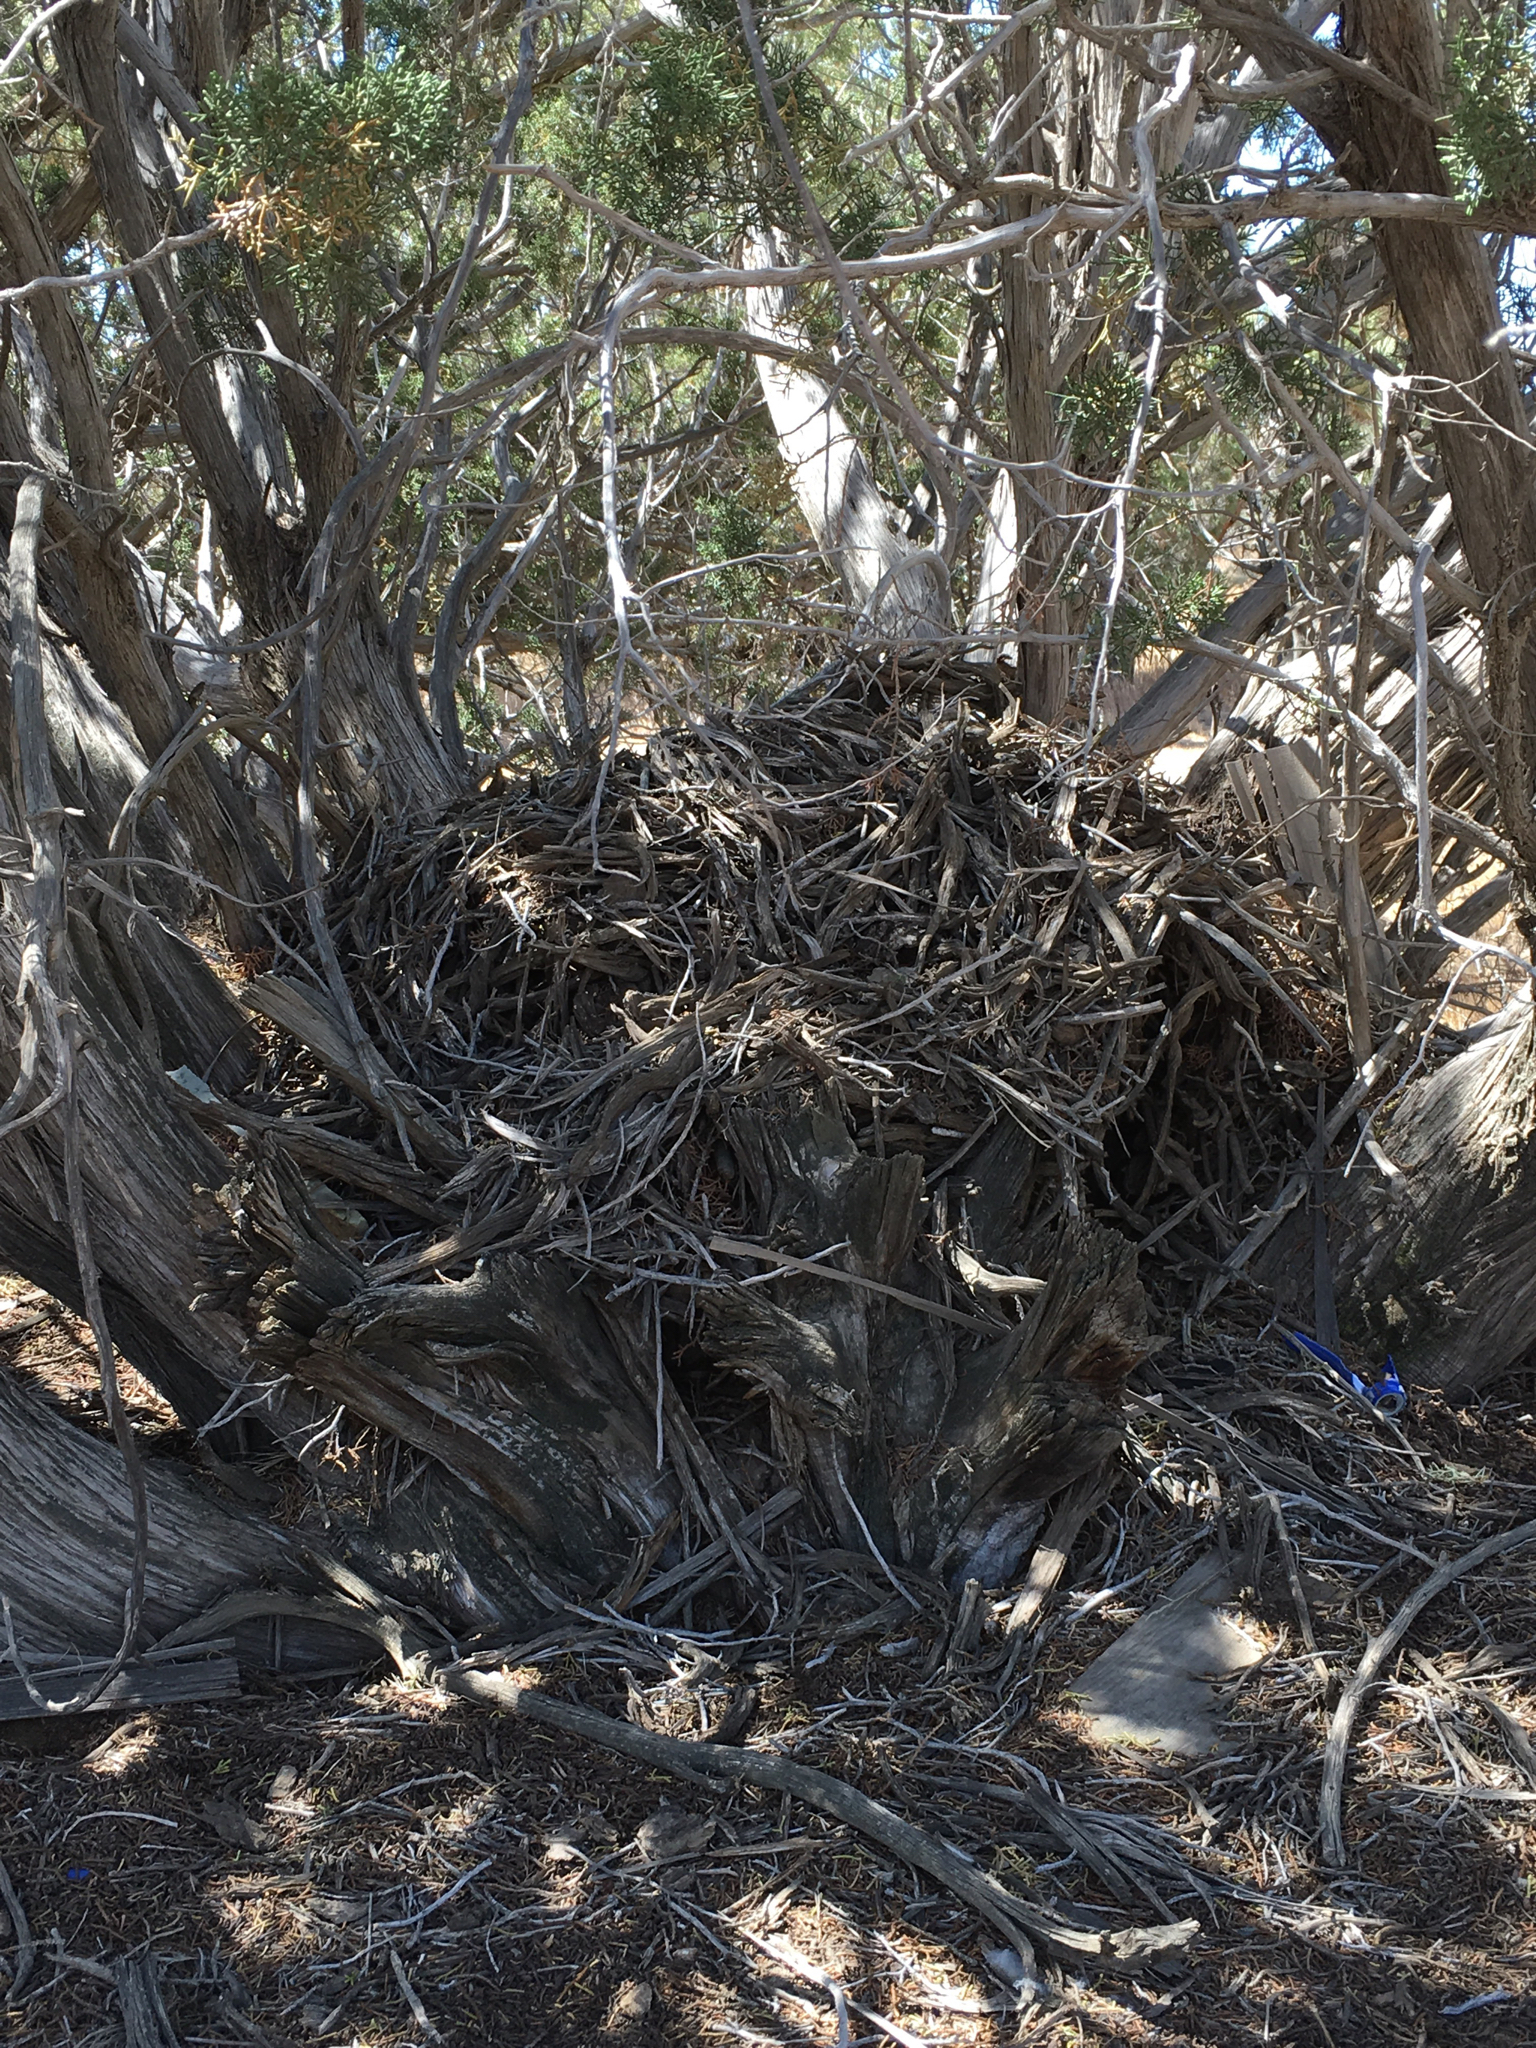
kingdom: Animalia
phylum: Chordata
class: Mammalia
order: Rodentia
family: Cricetidae
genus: Neotoma
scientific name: Neotoma lepida
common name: Desert woodrat
